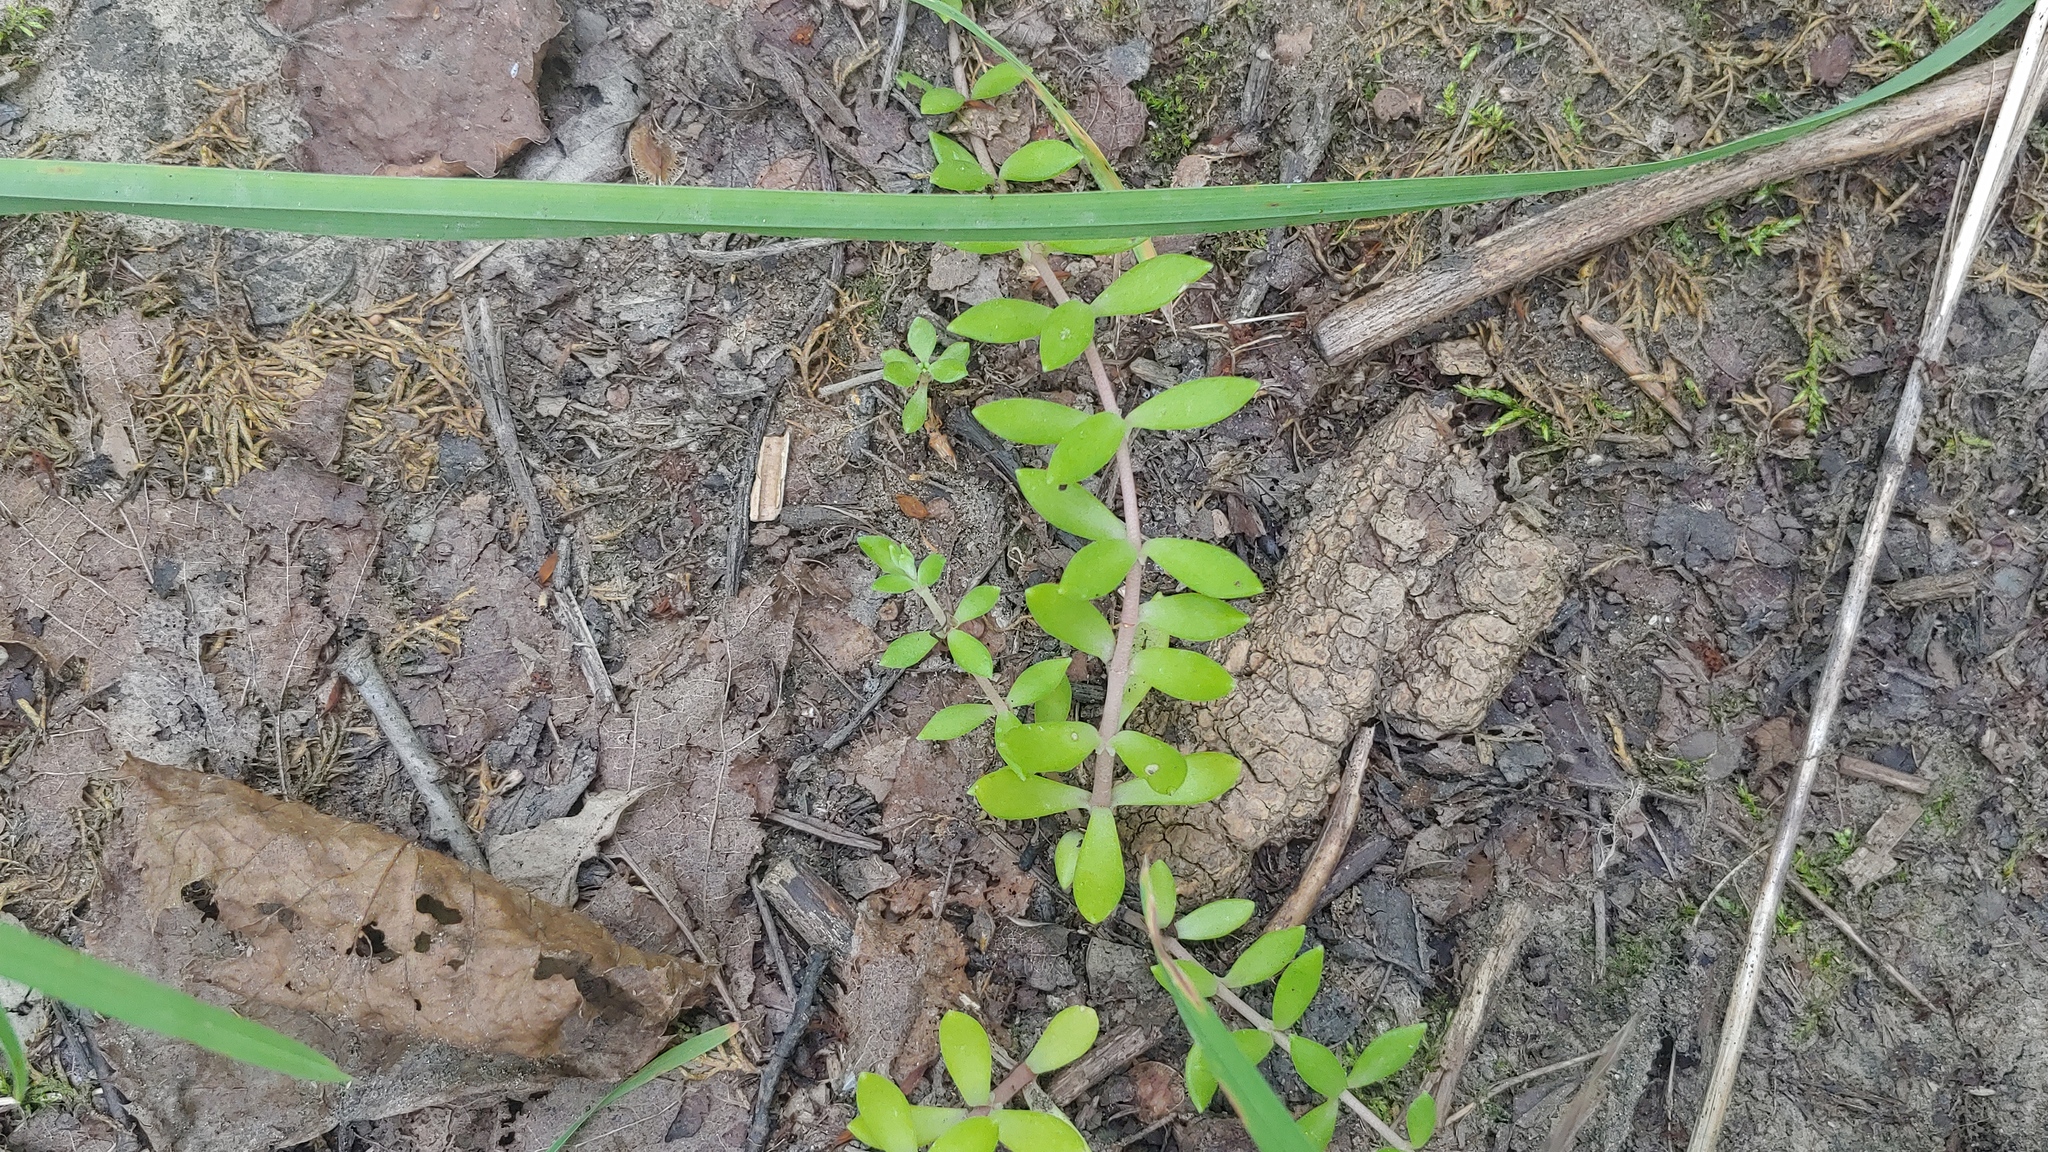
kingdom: Plantae
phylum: Tracheophyta
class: Magnoliopsida
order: Saxifragales
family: Crassulaceae
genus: Sedum
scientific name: Sedum sarmentosum
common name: Stringy stonecrop
